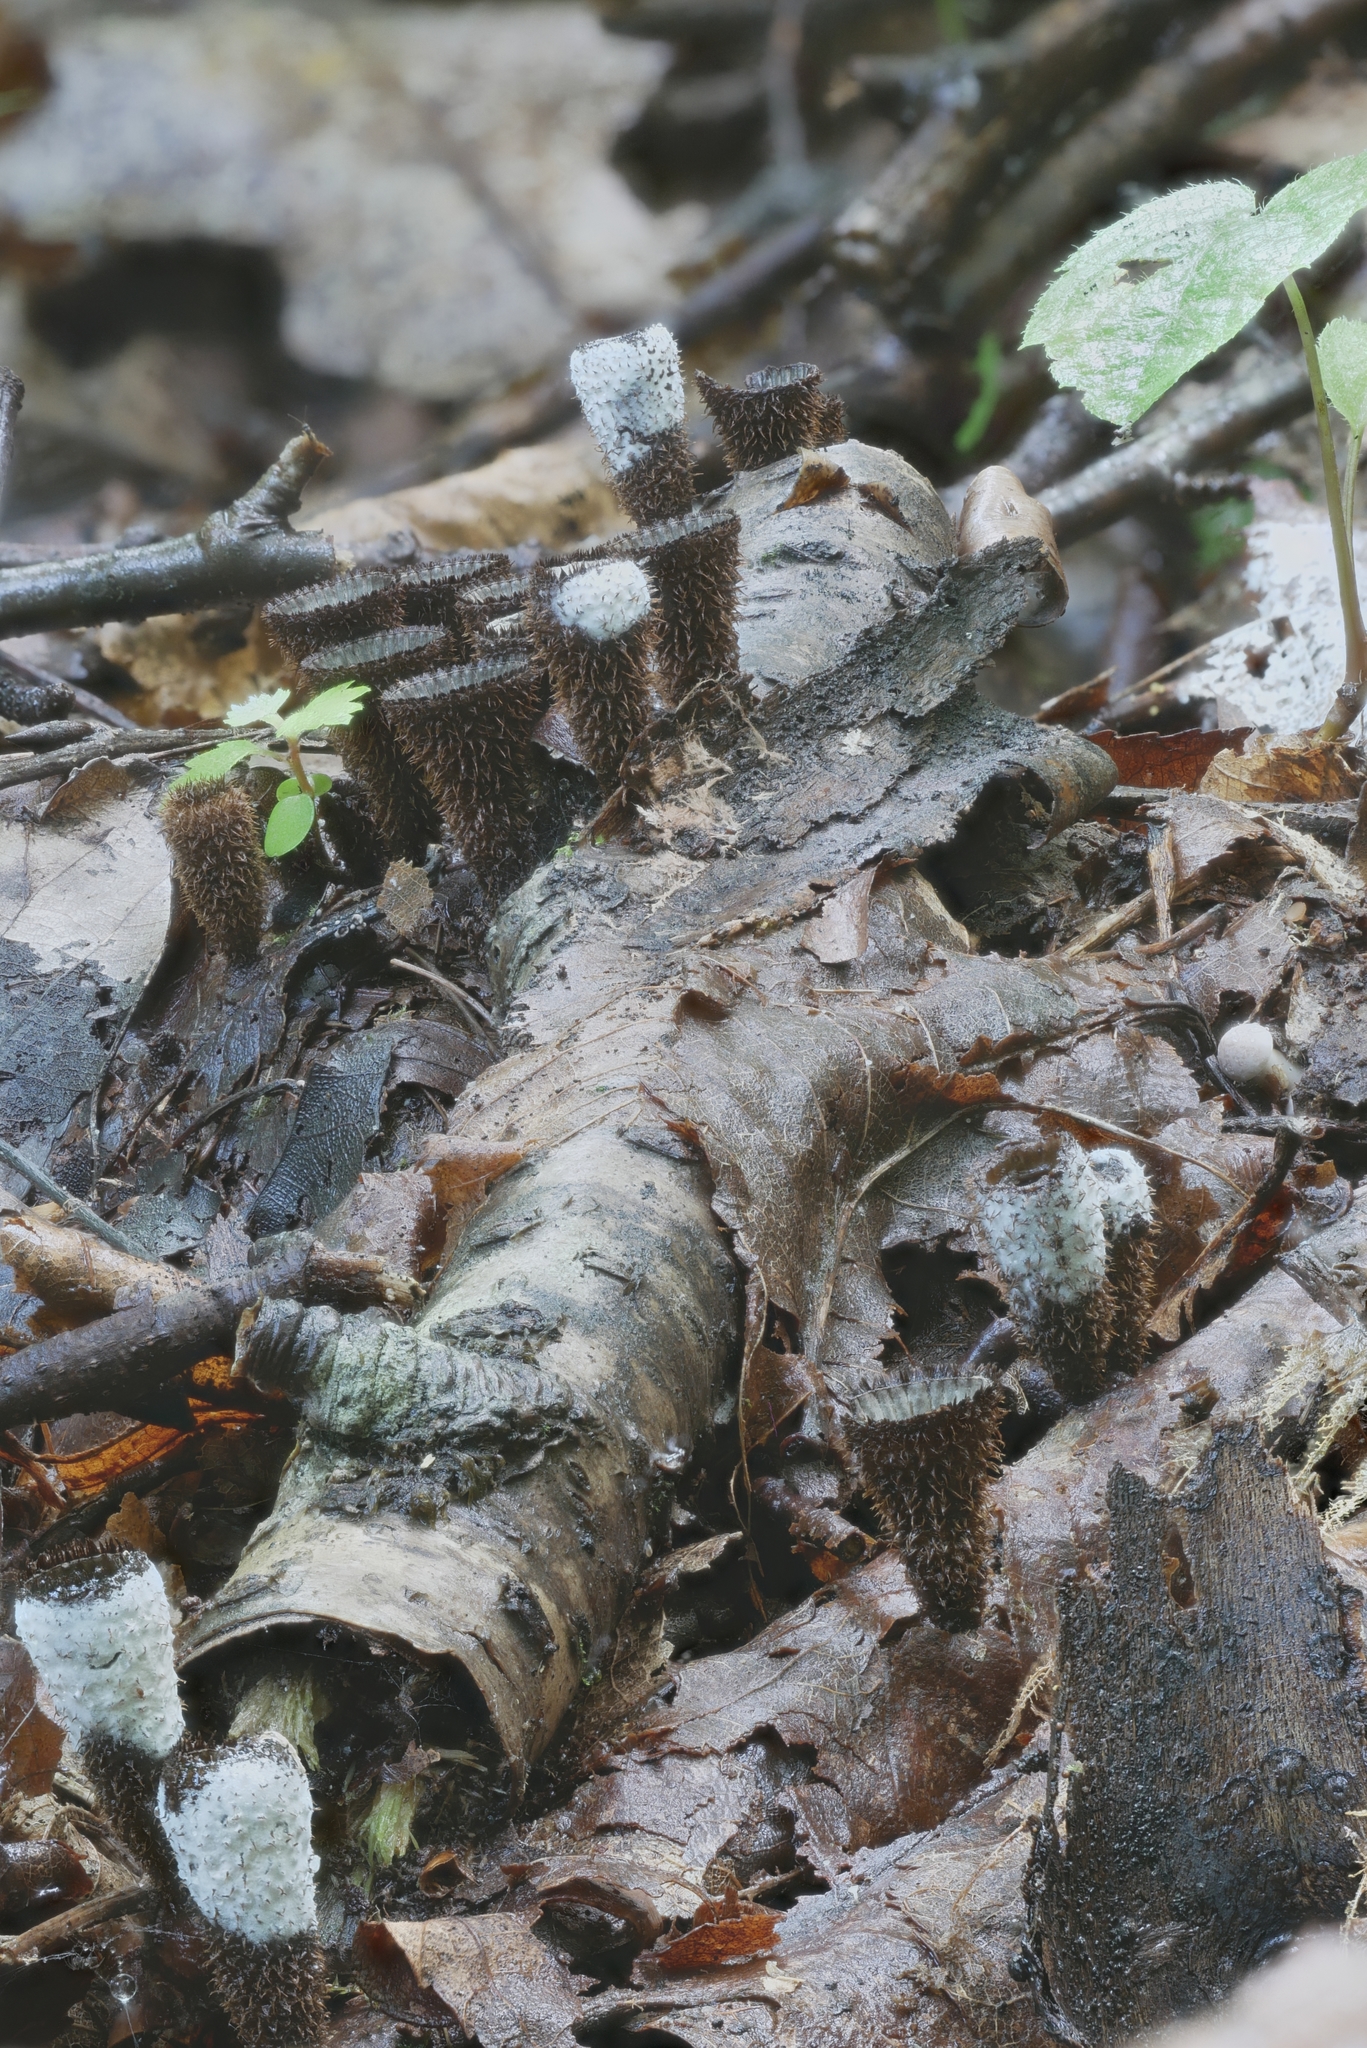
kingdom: Fungi
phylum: Ascomycota
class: Sordariomycetes
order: Hypocreales
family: Hypocreaceae
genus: Trichoderma
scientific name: Trichoderma latizonatum
